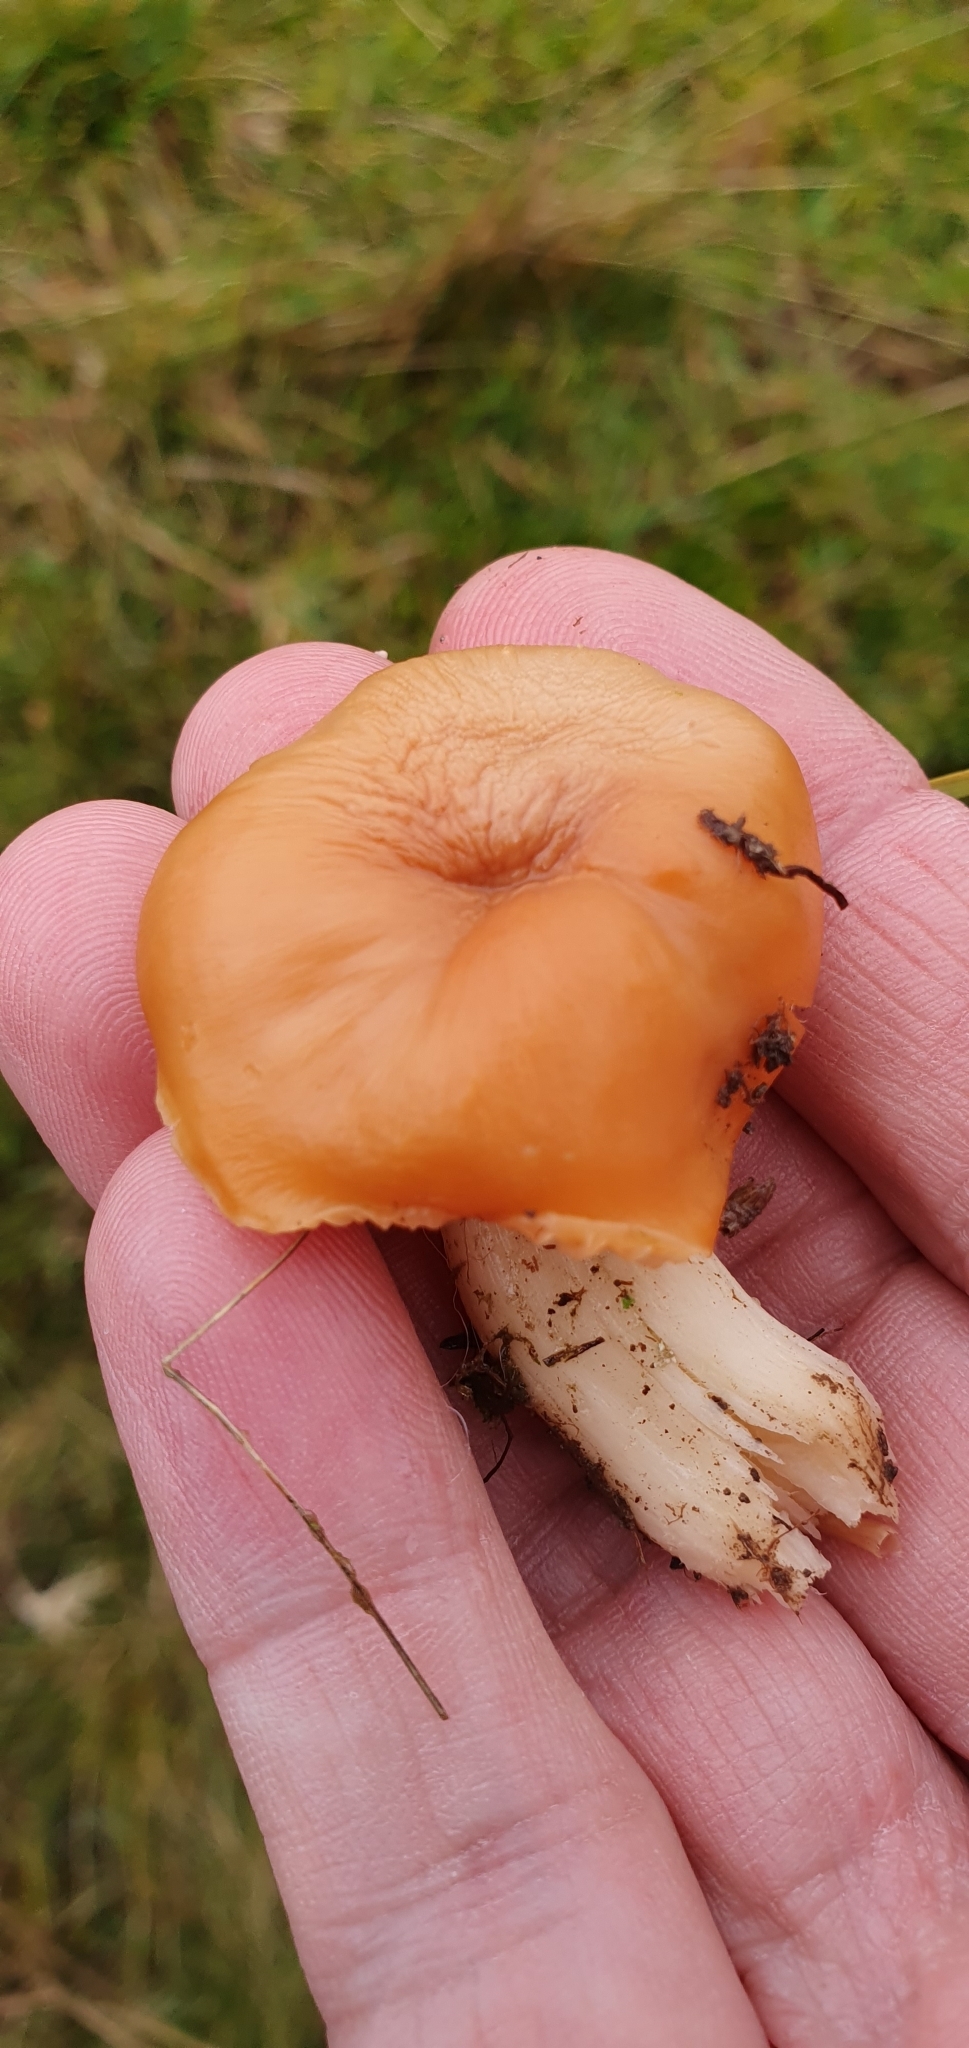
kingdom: Fungi
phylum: Basidiomycota
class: Agaricomycetes
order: Agaricales
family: Hygrophoraceae
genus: Cuphophyllus
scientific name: Cuphophyllus pratensis
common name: Meadow waxcap
